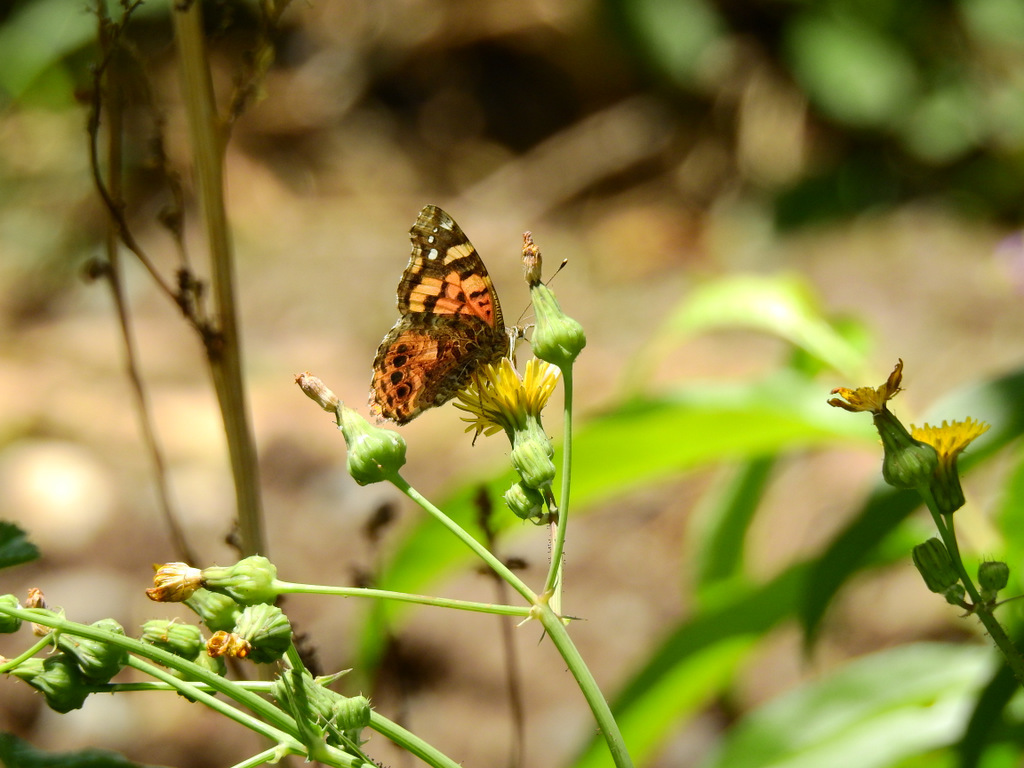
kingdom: Animalia
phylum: Arthropoda
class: Insecta
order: Lepidoptera
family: Nymphalidae
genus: Vanessa
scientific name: Vanessa carye
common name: Subtropical lady
